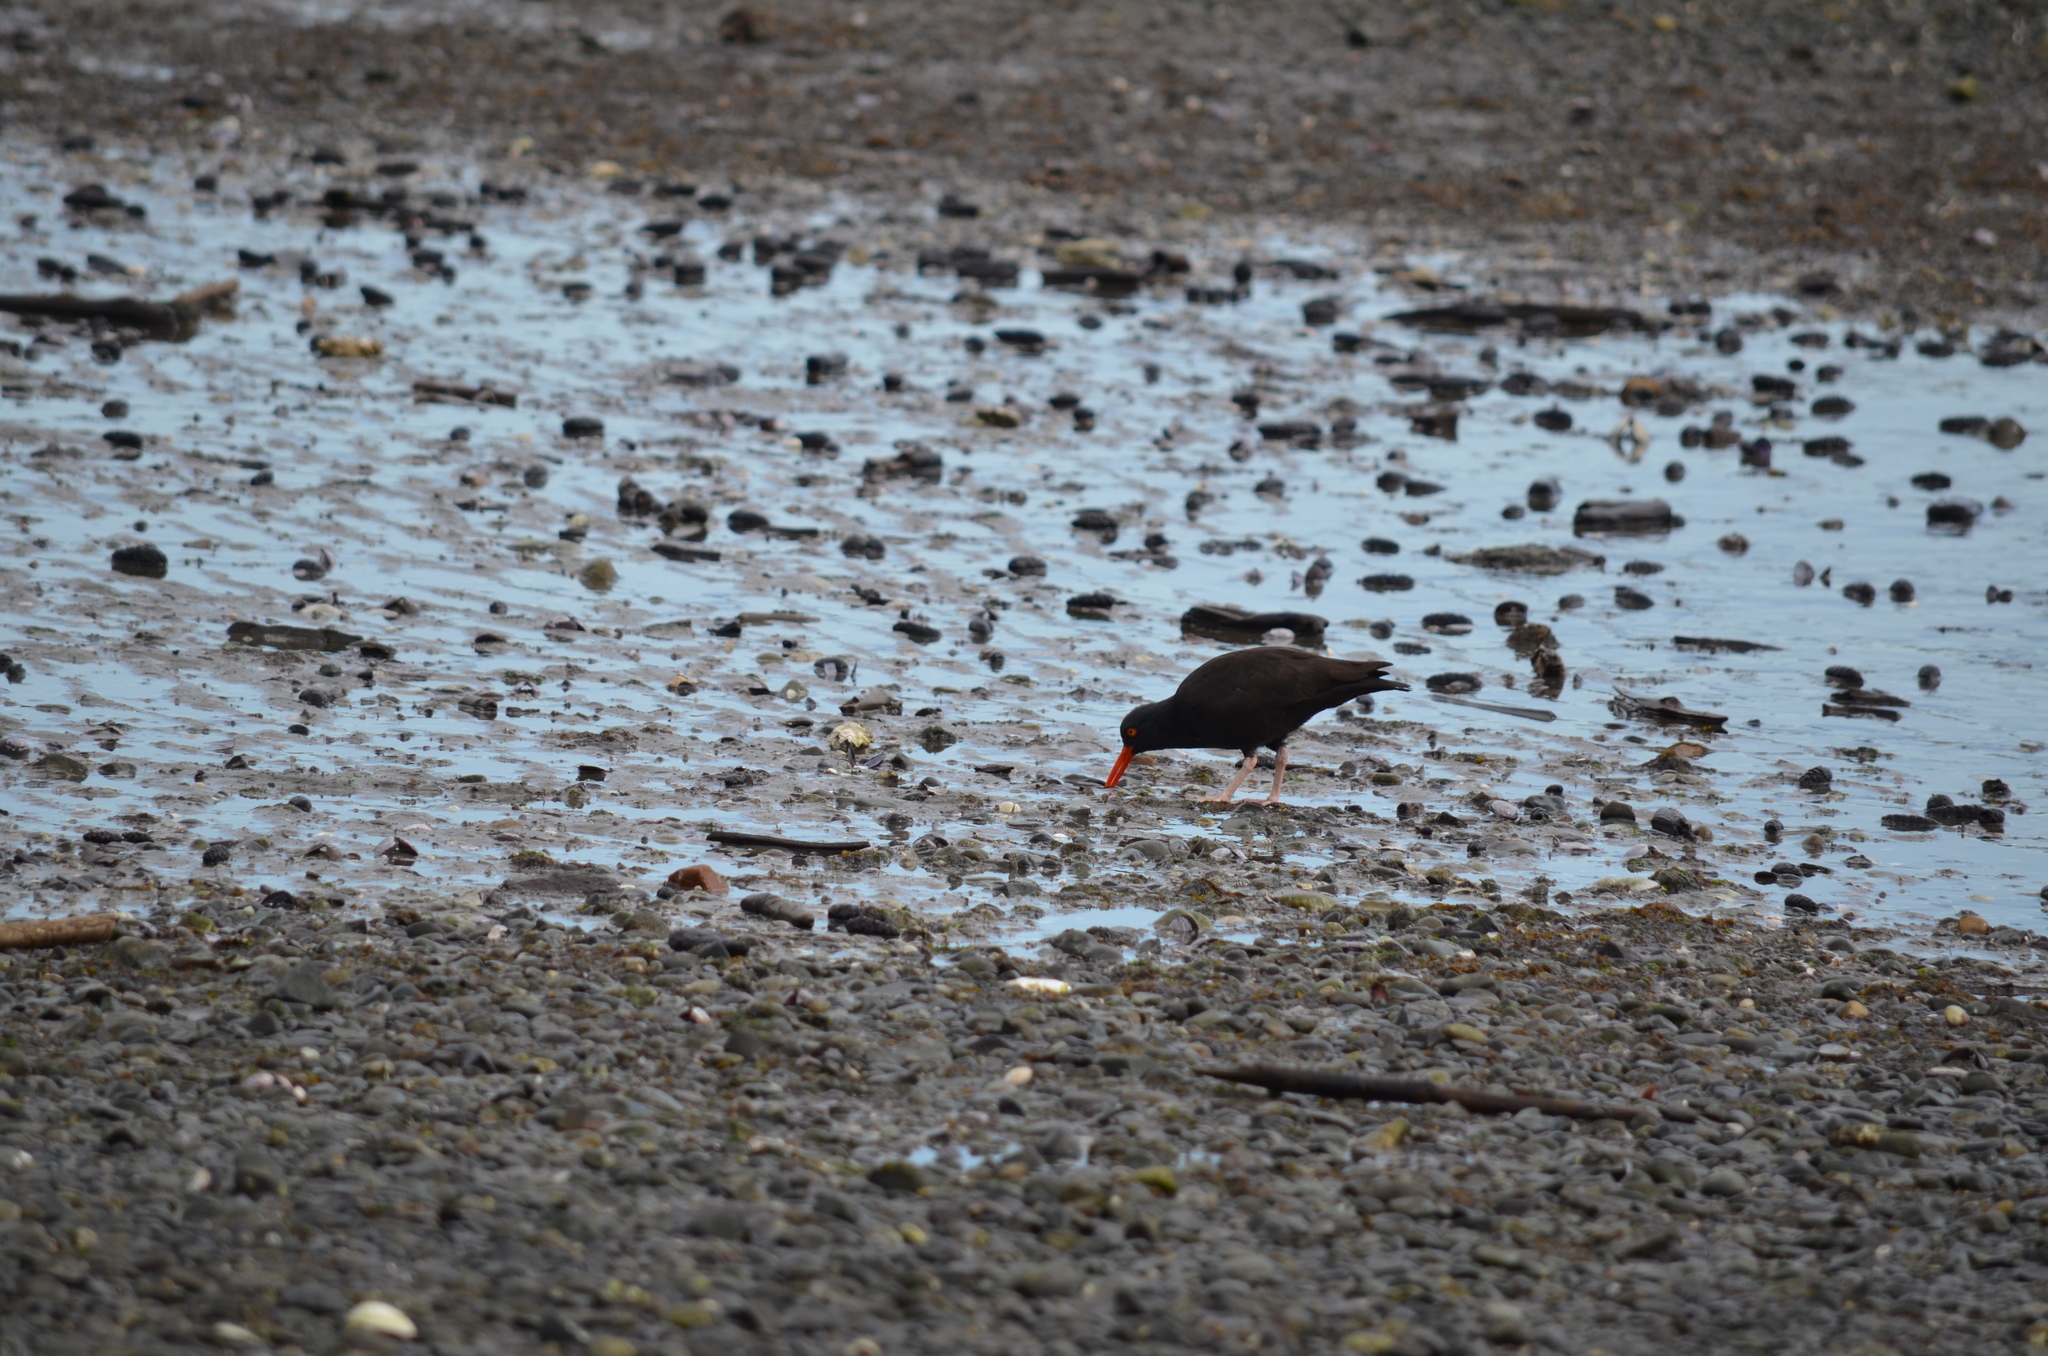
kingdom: Animalia
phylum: Chordata
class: Aves
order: Charadriiformes
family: Haematopodidae
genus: Haematopus
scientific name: Haematopus bachmani
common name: Black oystercatcher
